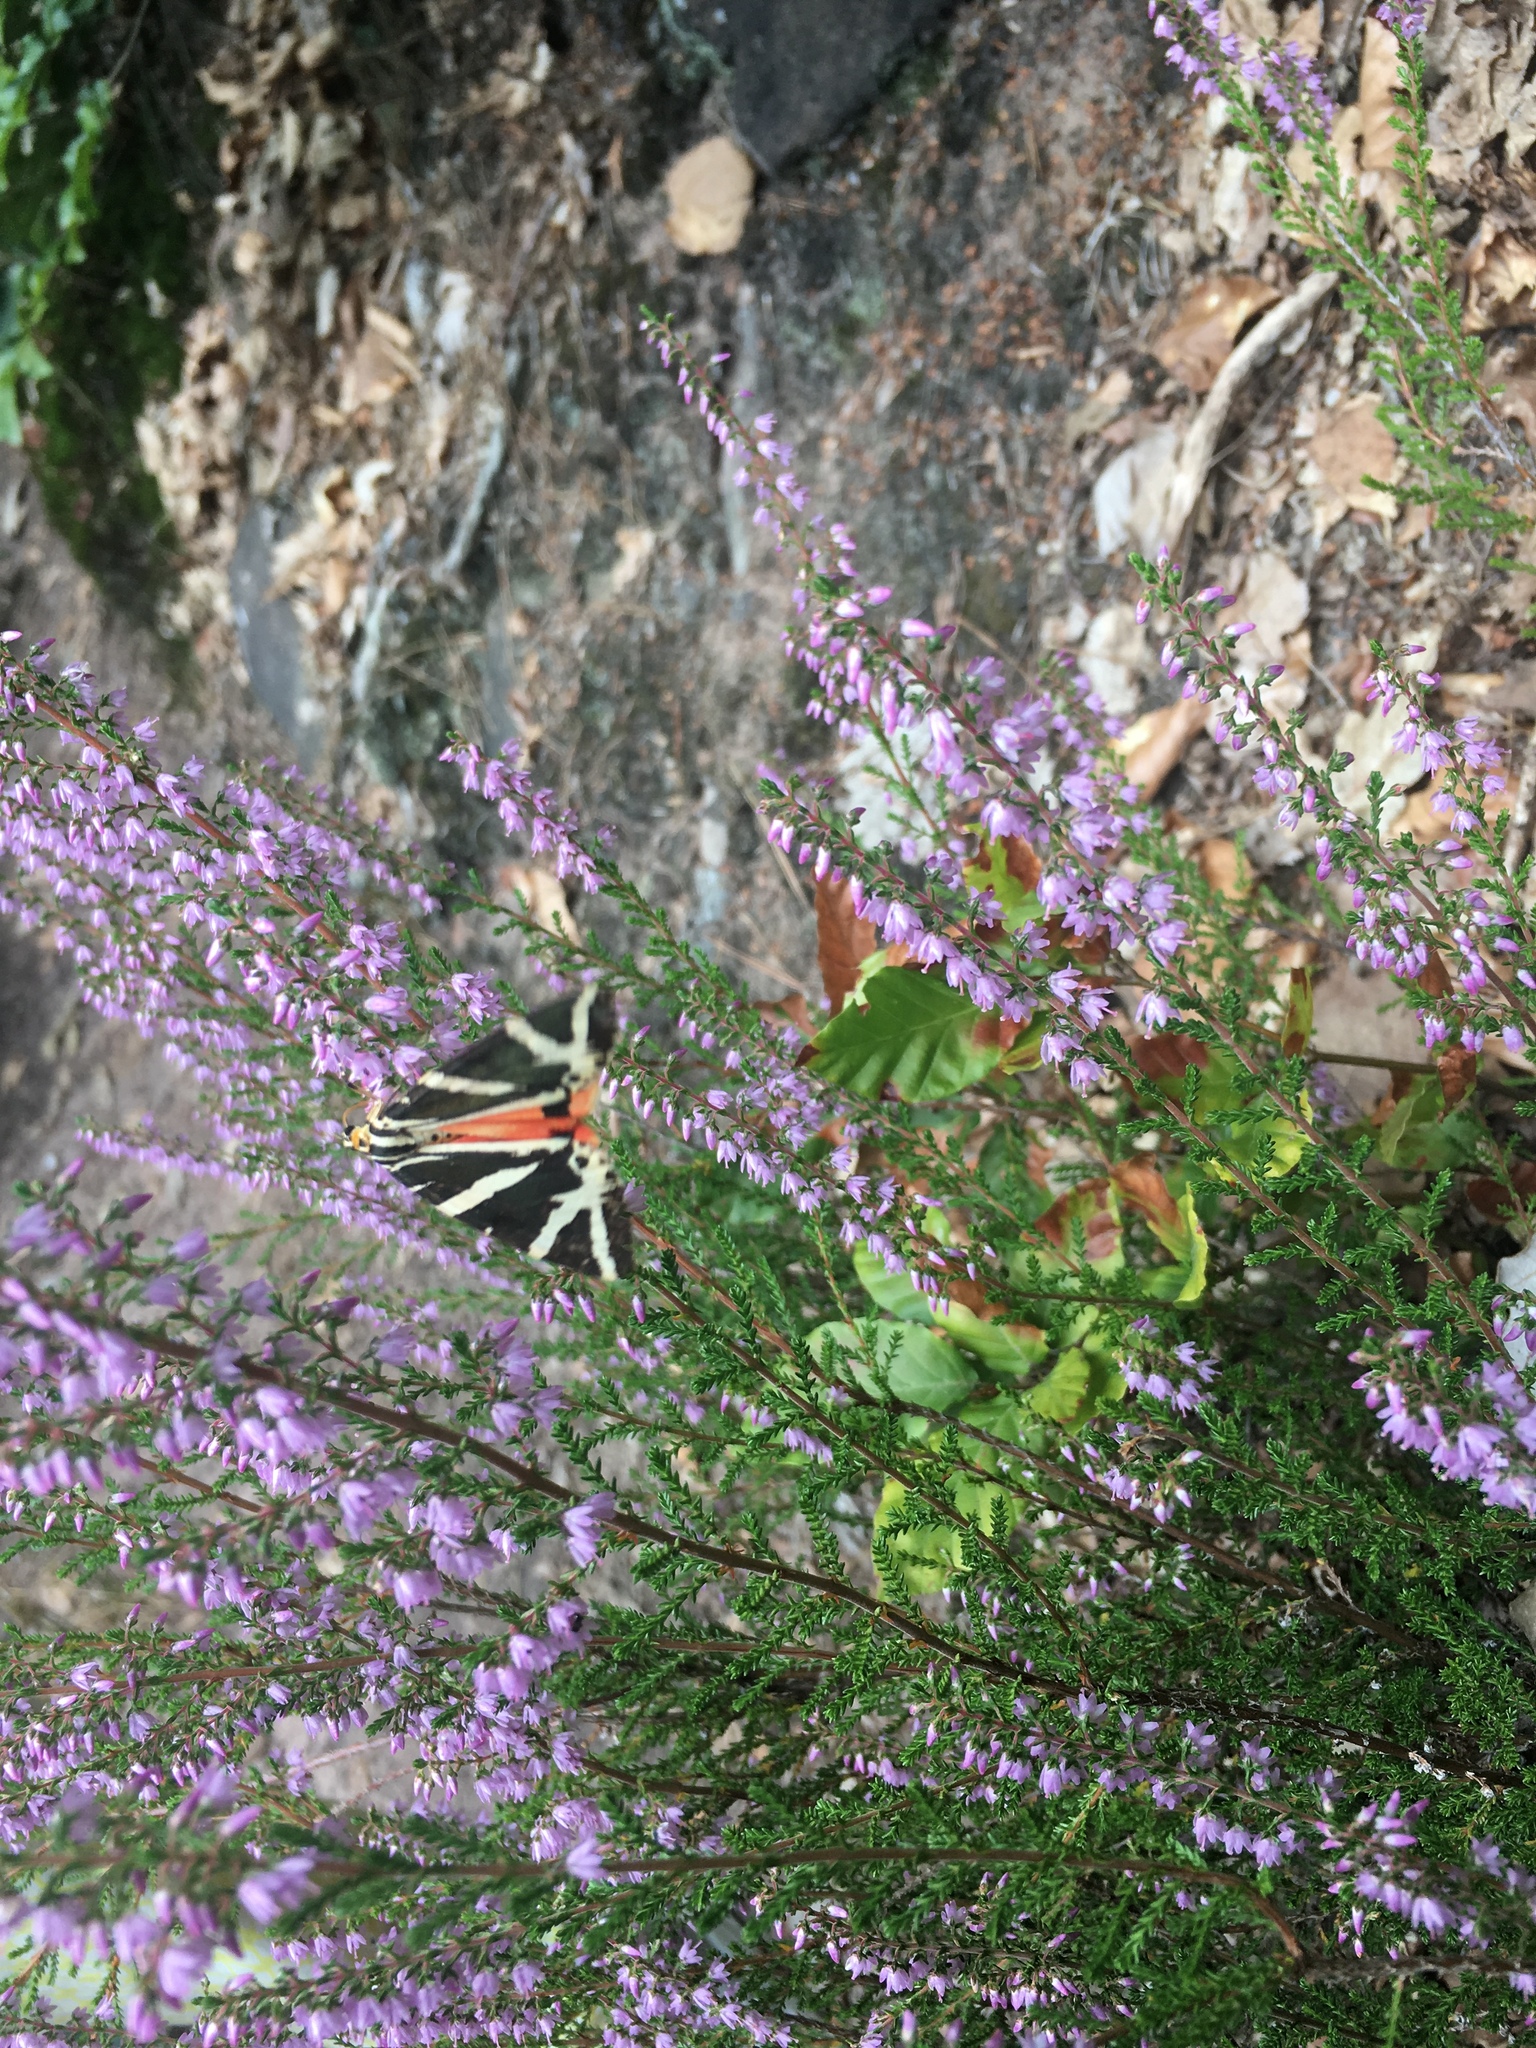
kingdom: Animalia
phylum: Arthropoda
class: Insecta
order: Lepidoptera
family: Erebidae
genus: Euplagia
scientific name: Euplagia quadripunctaria
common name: Jersey tiger
